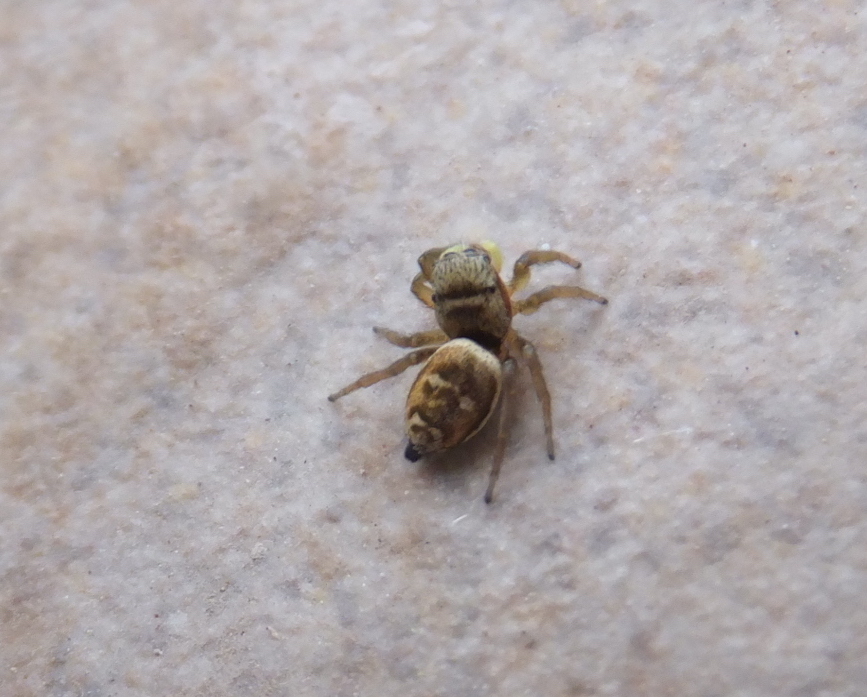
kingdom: Animalia
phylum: Arthropoda
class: Arachnida
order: Araneae
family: Salticidae
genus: Heliophanus
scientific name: Heliophanus tribulosus
